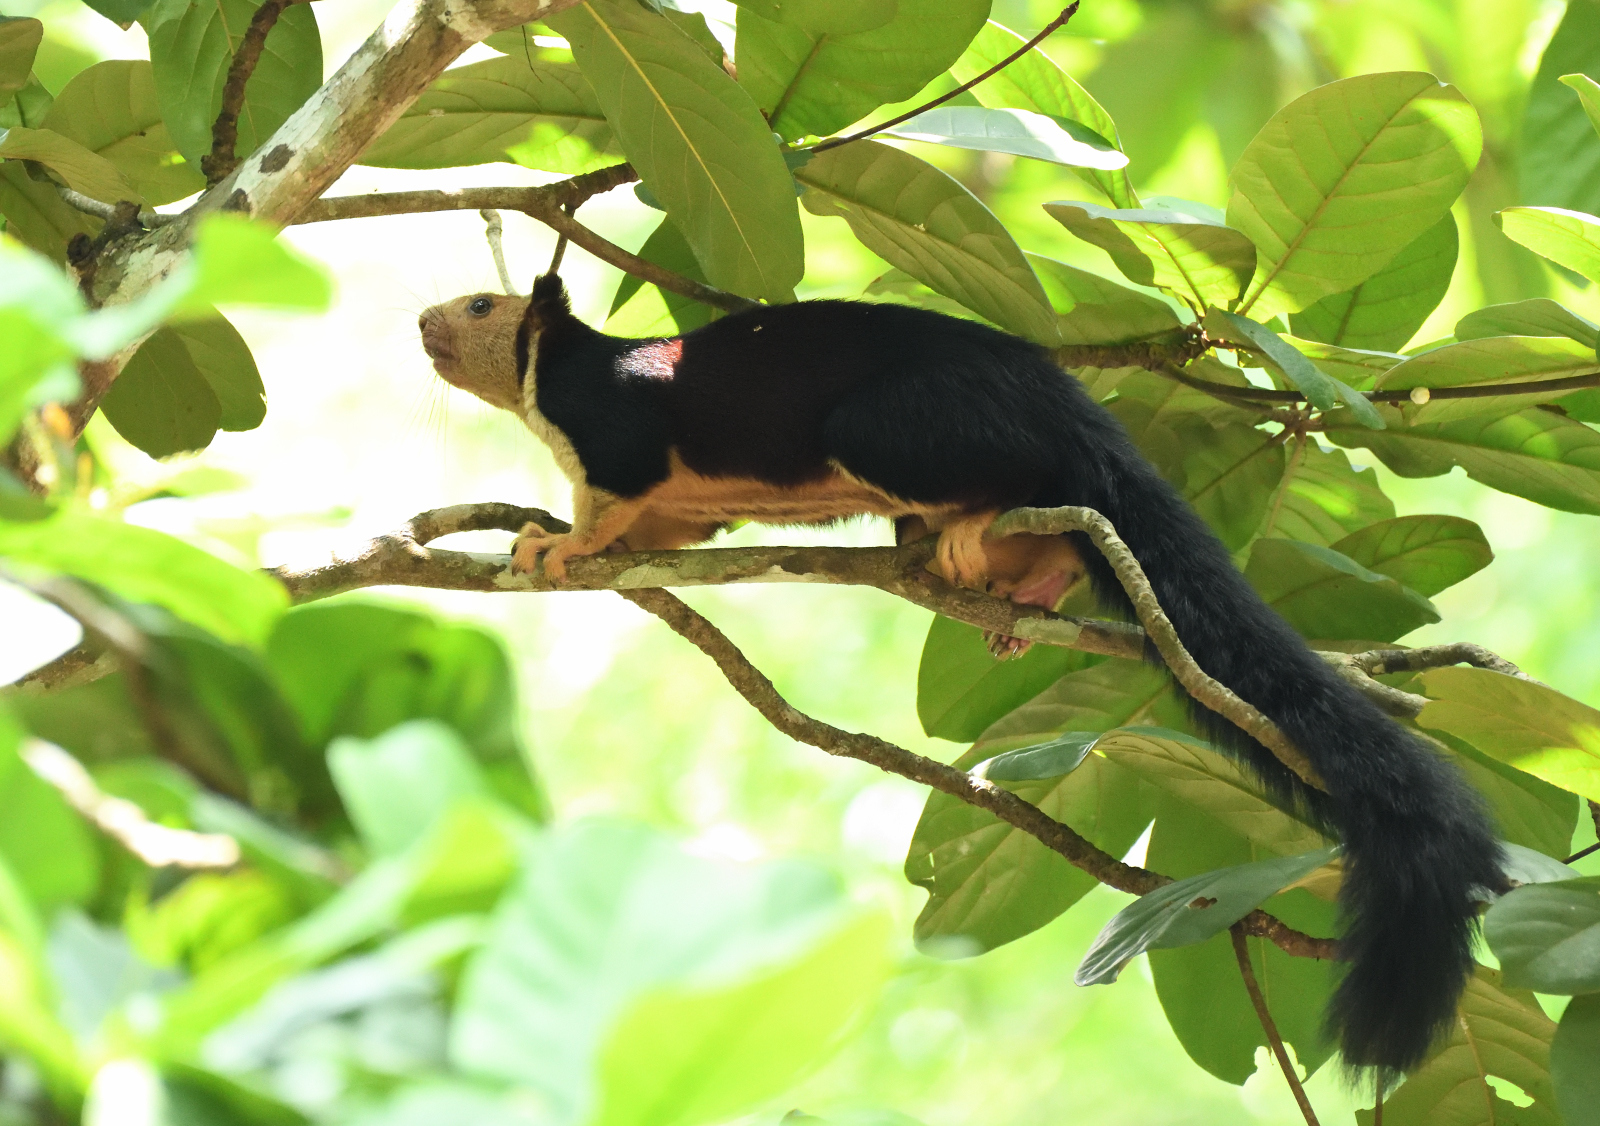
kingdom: Animalia
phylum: Chordata
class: Mammalia
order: Rodentia
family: Sciuridae
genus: Ratufa
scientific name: Ratufa indica
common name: Indian giant squirrel
